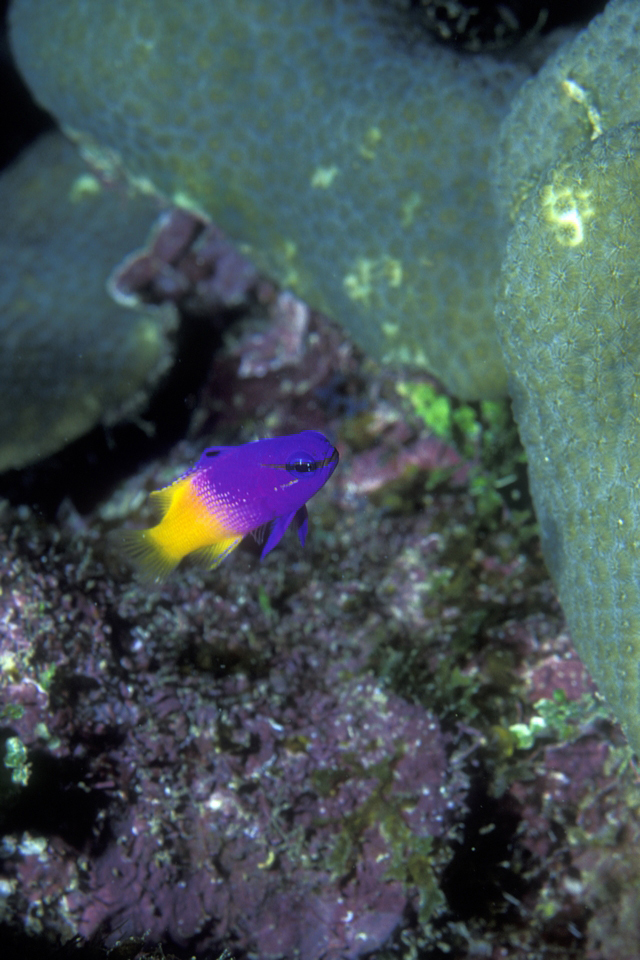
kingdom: Animalia
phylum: Chordata
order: Perciformes
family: Grammatidae
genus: Gramma
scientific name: Gramma loreto
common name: Fairy basslet
